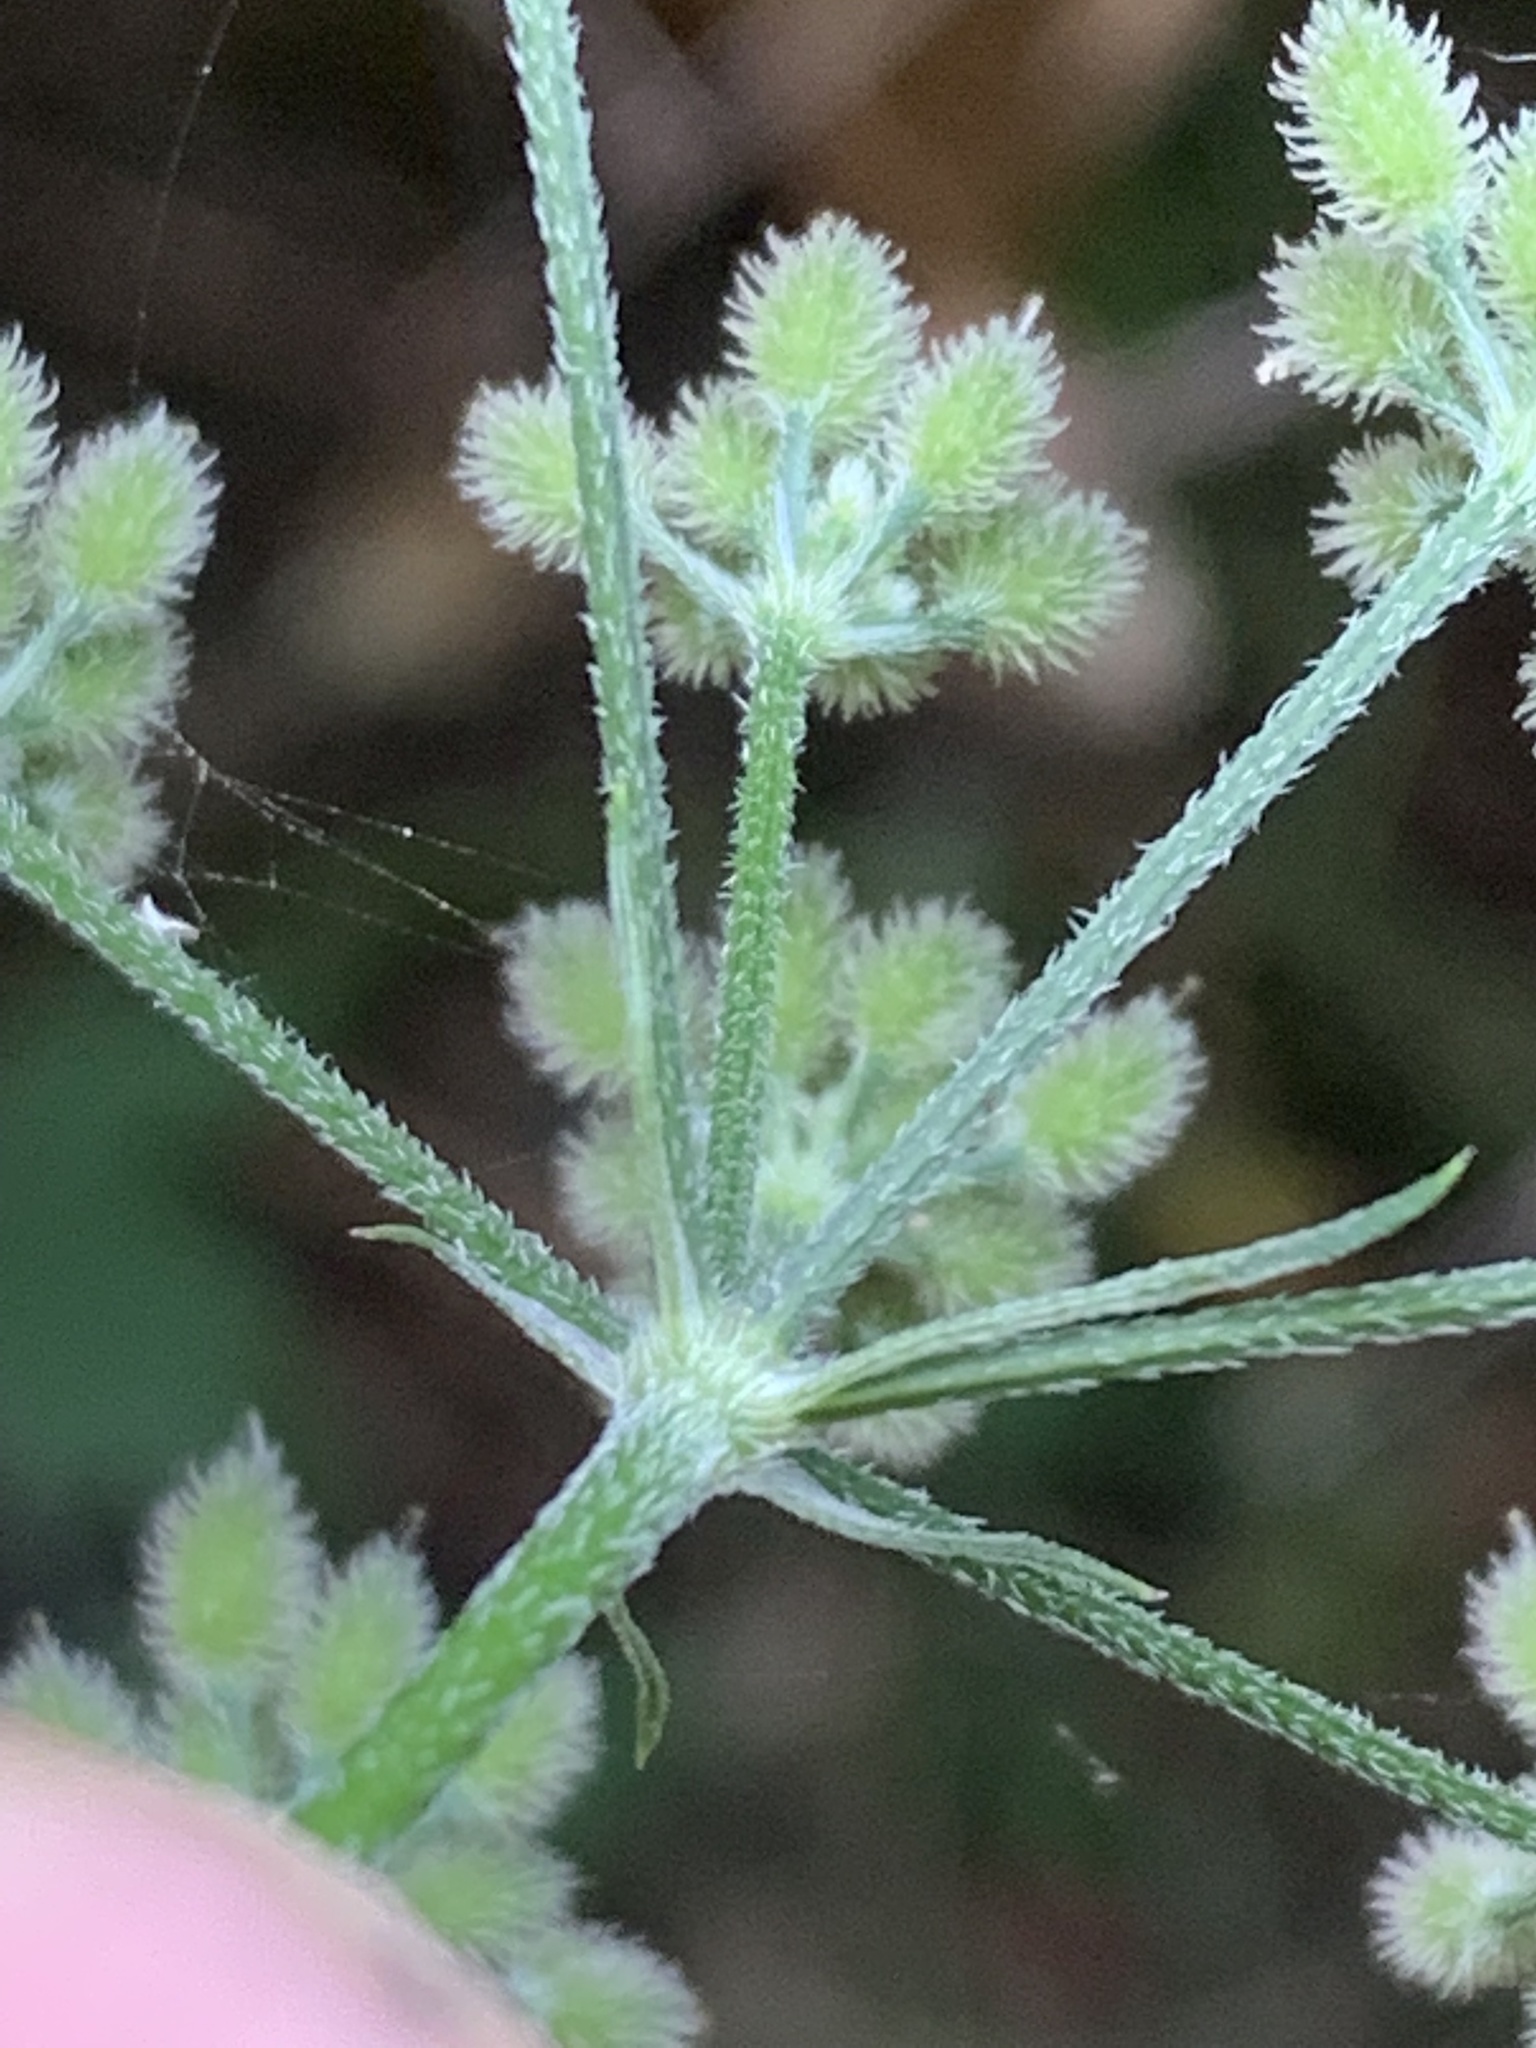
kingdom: Plantae
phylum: Tracheophyta
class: Magnoliopsida
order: Apiales
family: Apiaceae
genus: Torilis
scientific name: Torilis japonica
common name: Upright hedge-parsley
